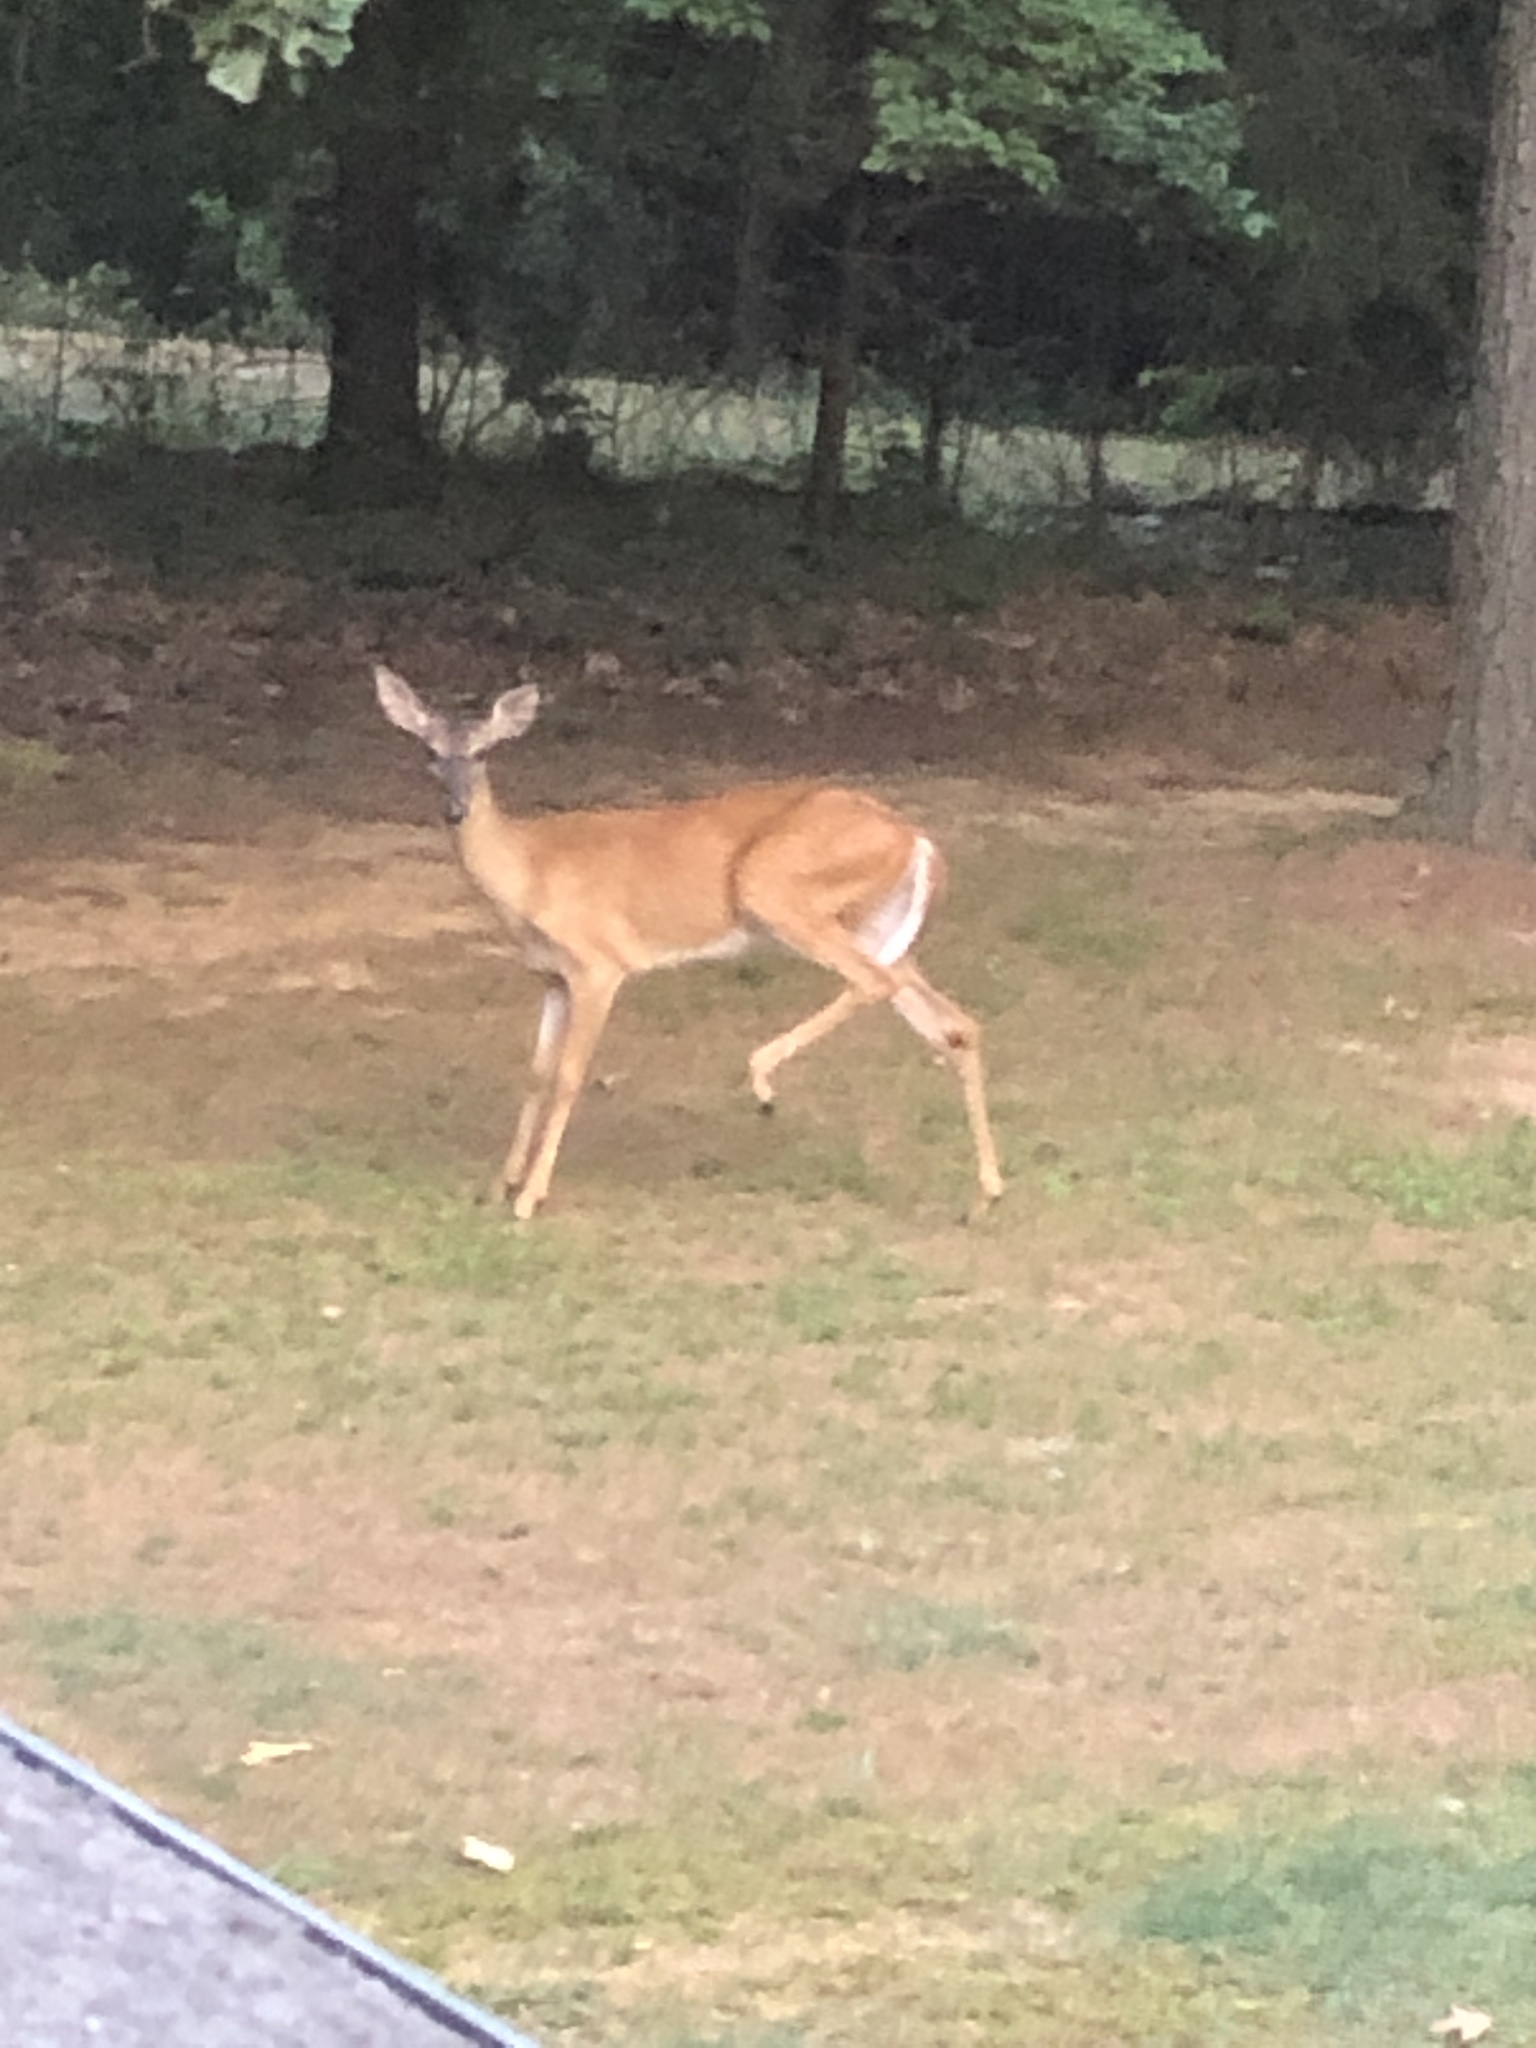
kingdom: Animalia
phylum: Chordata
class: Mammalia
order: Artiodactyla
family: Cervidae
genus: Odocoileus
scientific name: Odocoileus virginianus
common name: White-tailed deer
